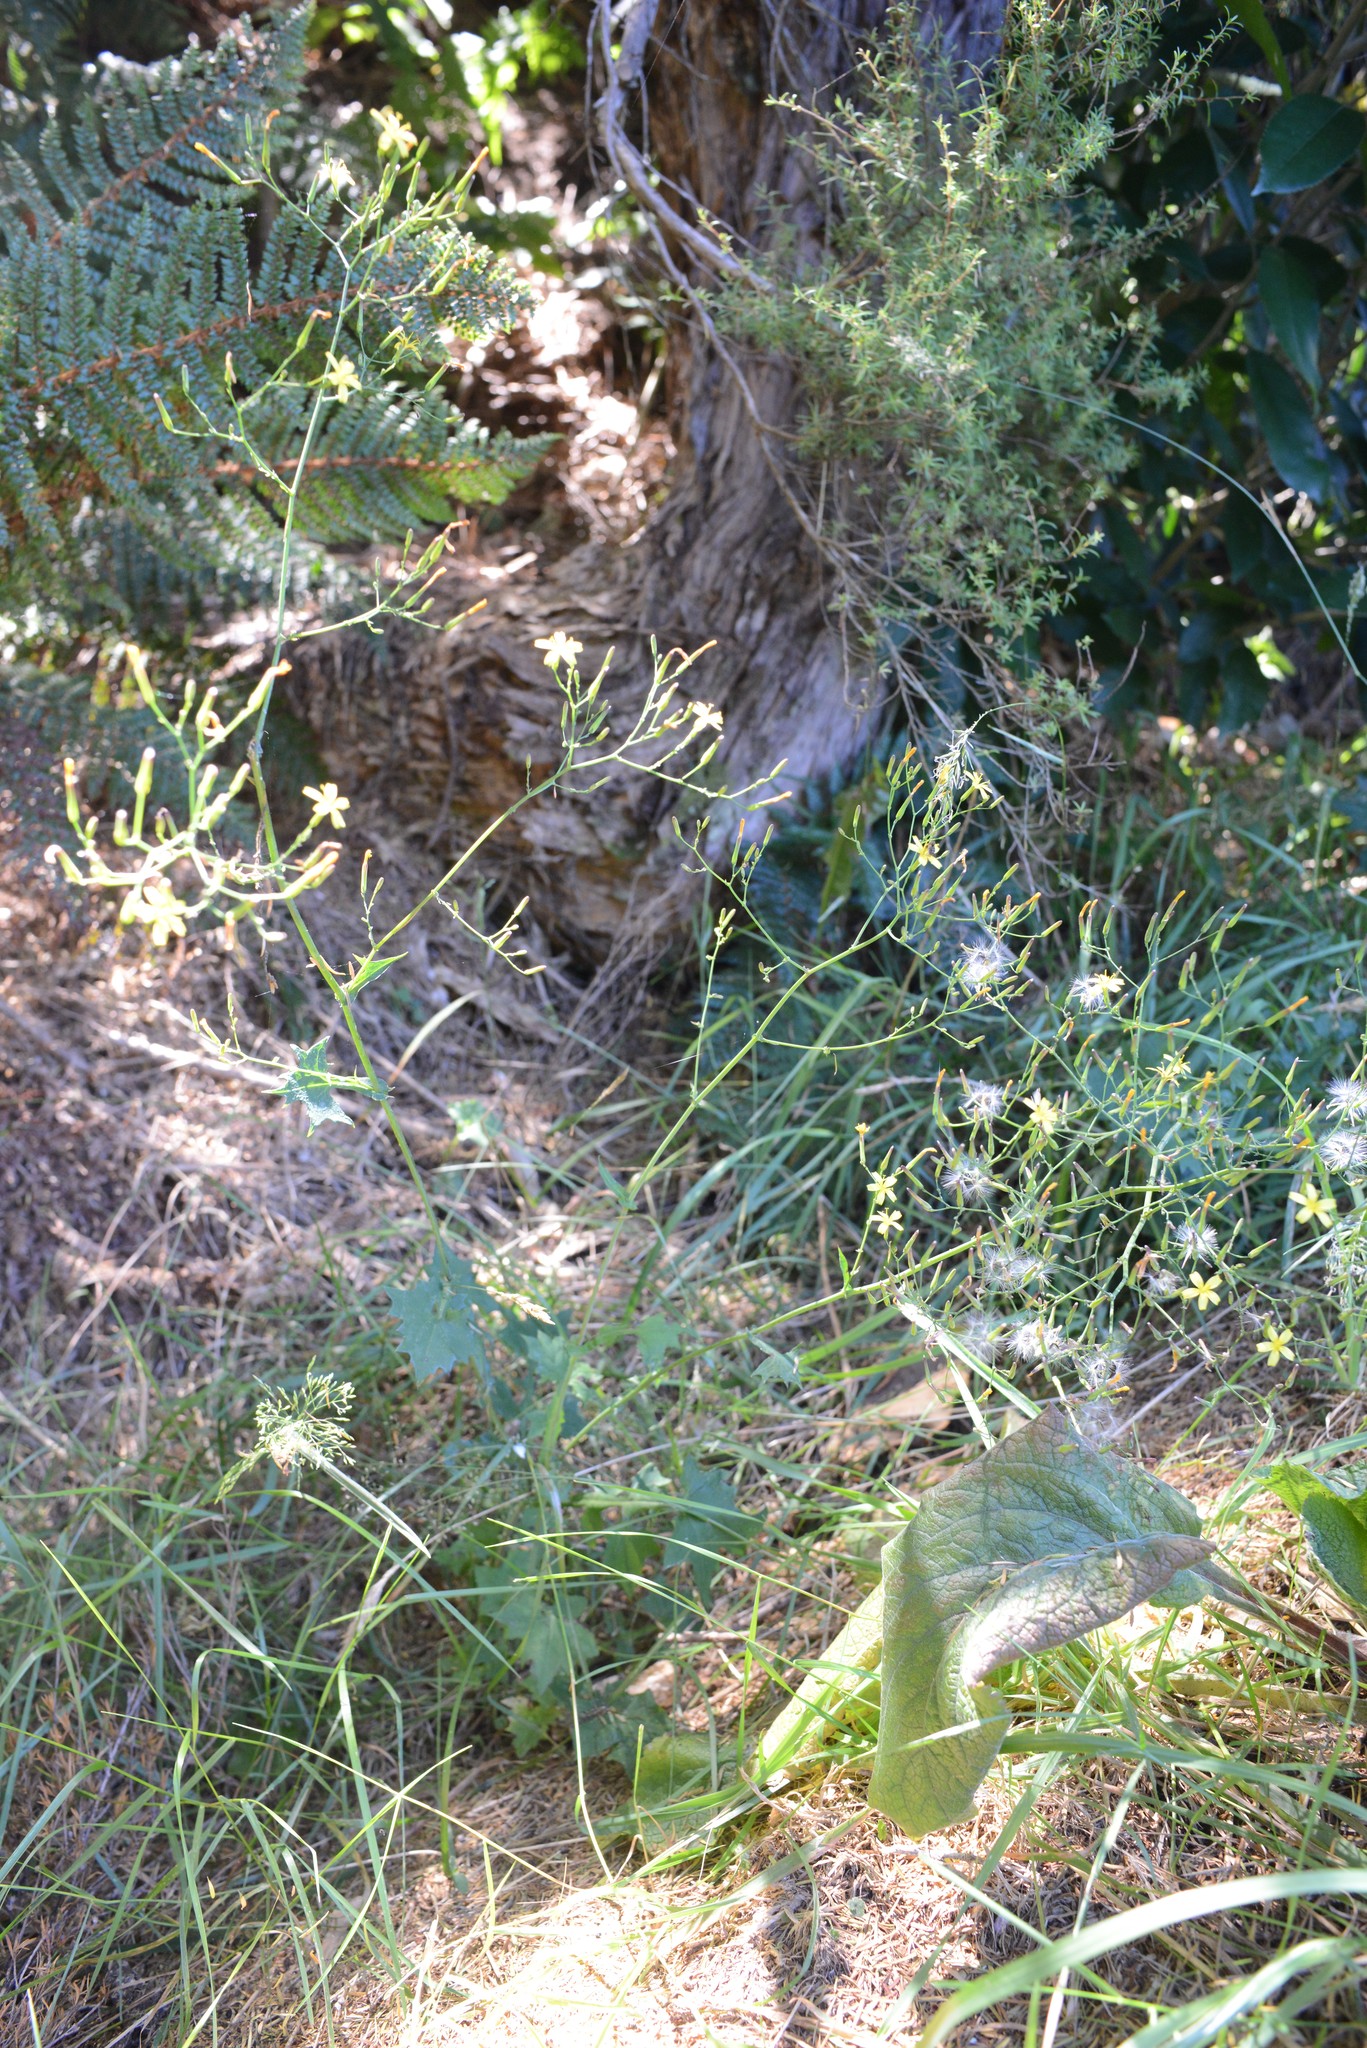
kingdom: Plantae
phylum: Tracheophyta
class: Magnoliopsida
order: Asterales
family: Asteraceae
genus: Mycelis
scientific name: Mycelis muralis
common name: Wall lettuce
